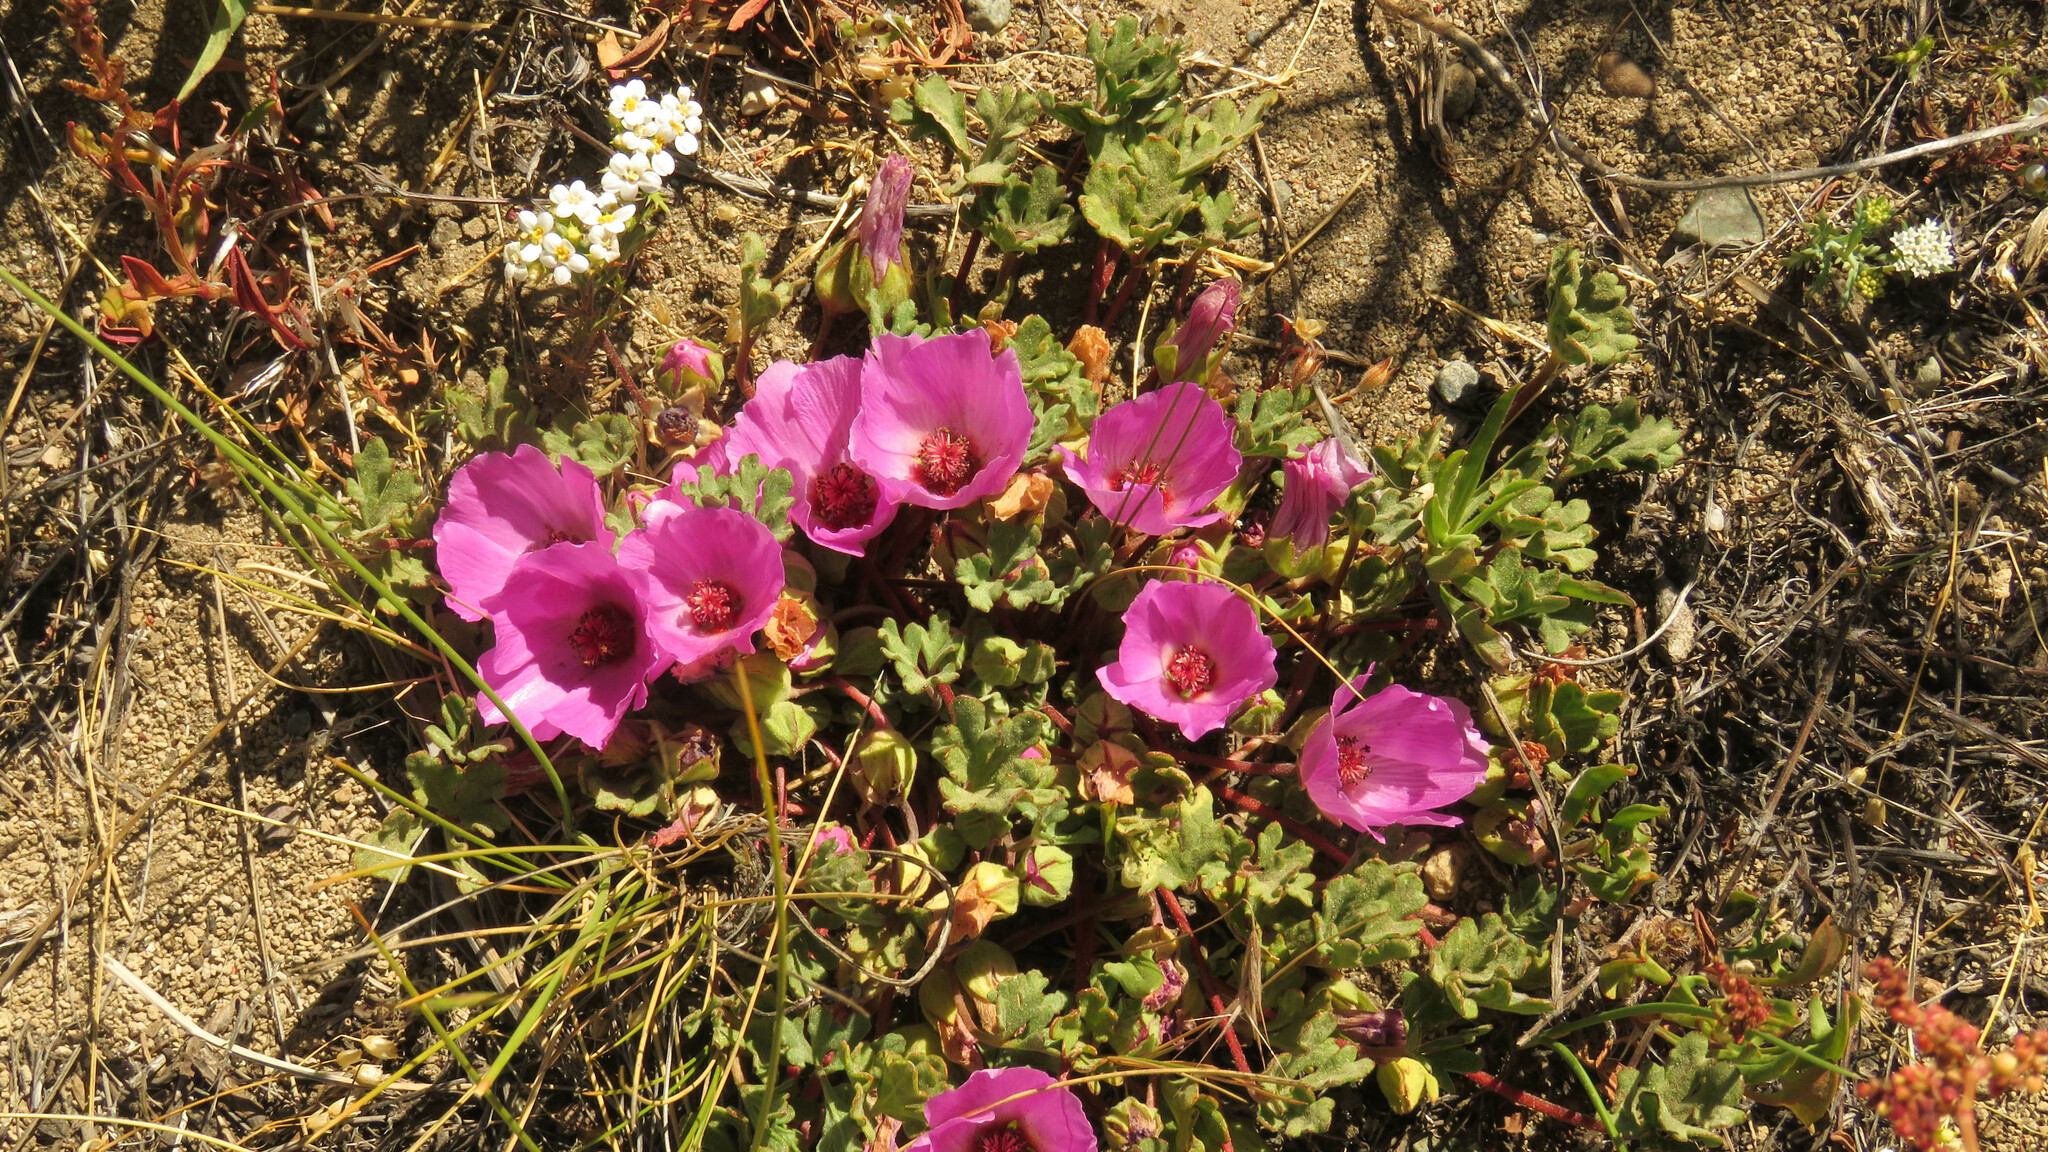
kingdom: Plantae
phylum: Tracheophyta
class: Magnoliopsida
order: Malvales
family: Malvaceae
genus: Tarasa
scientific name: Tarasa humilis
